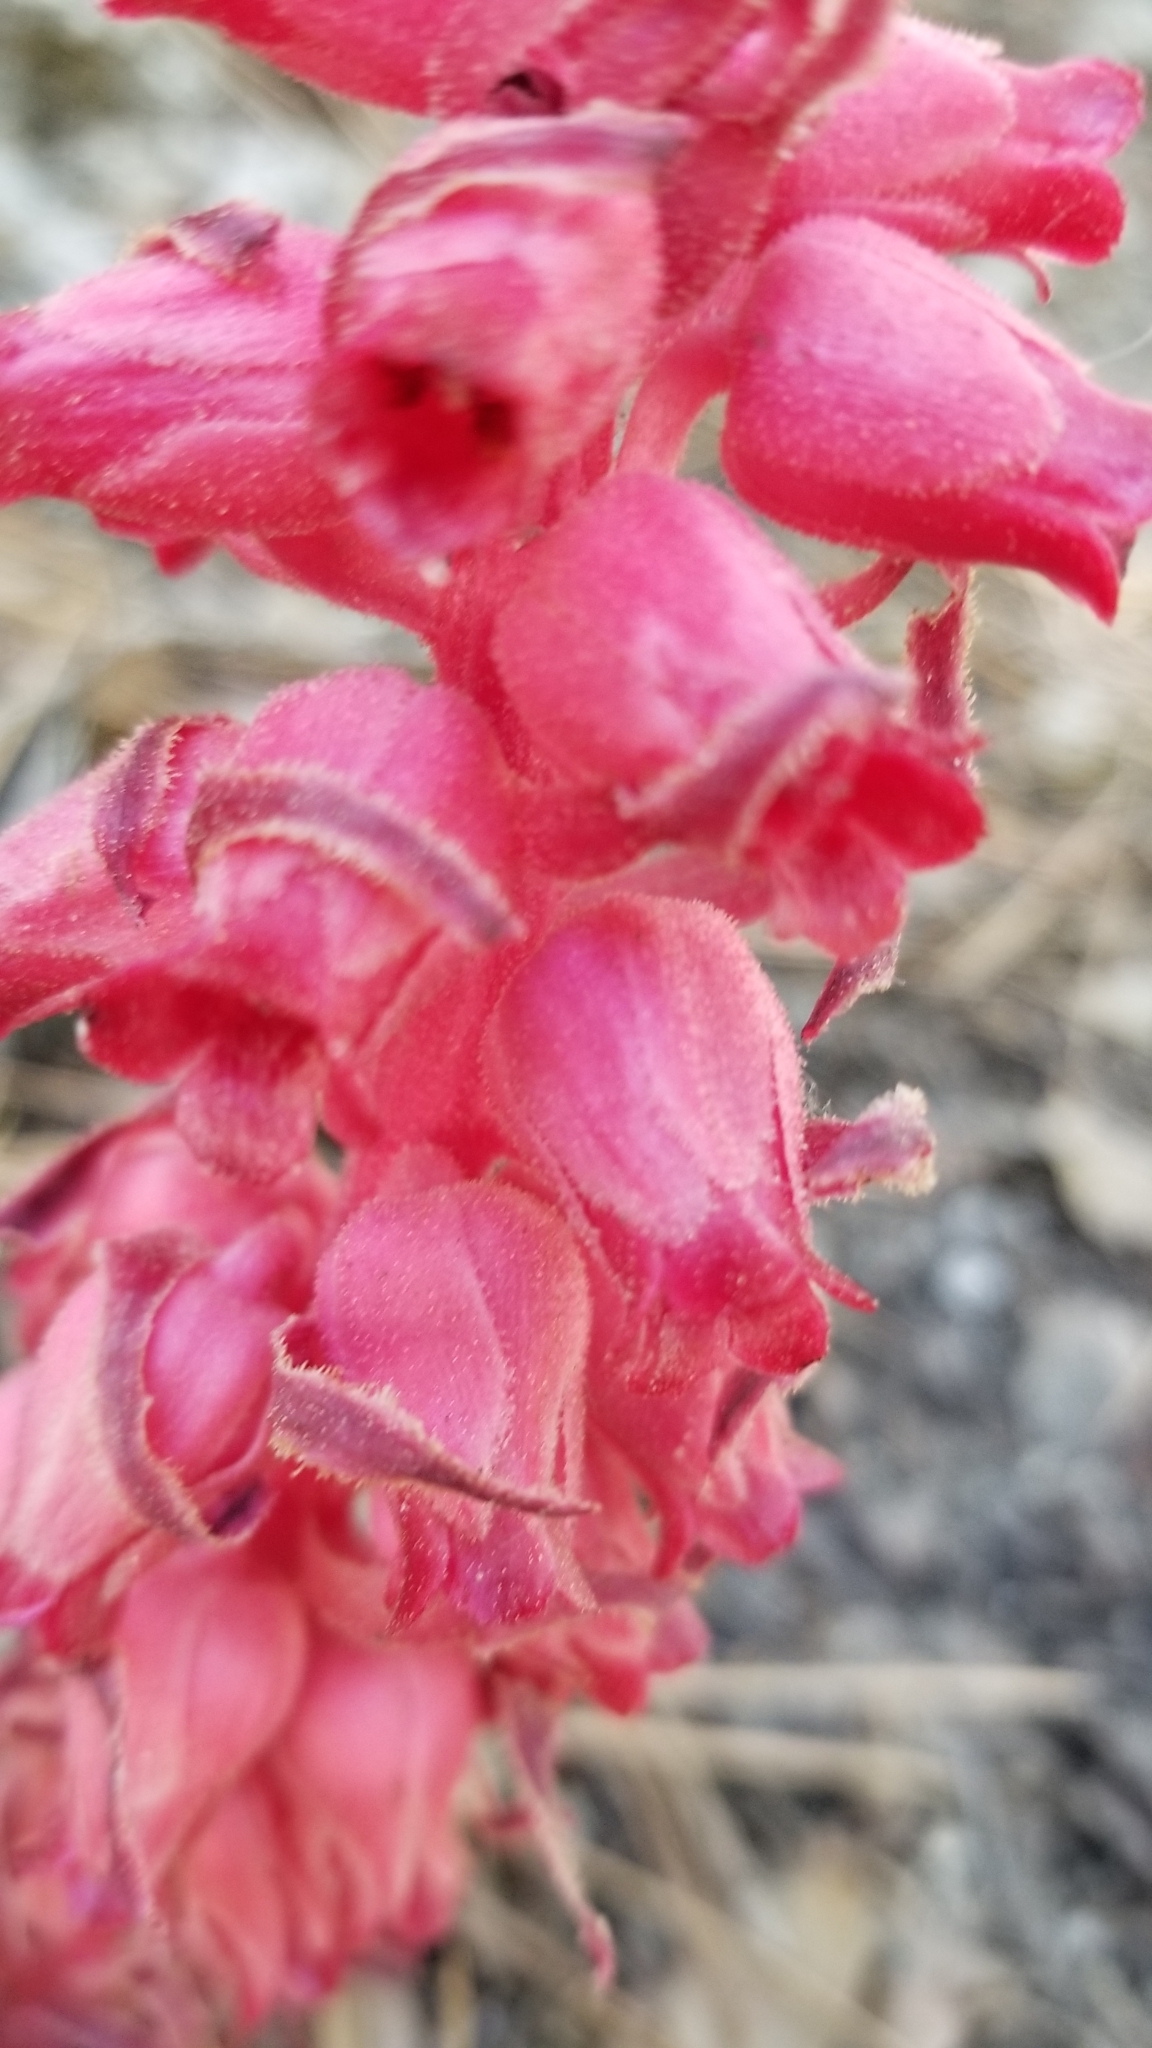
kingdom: Plantae
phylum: Tracheophyta
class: Magnoliopsida
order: Ericales
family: Ericaceae
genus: Sarcodes
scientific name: Sarcodes sanguinea
